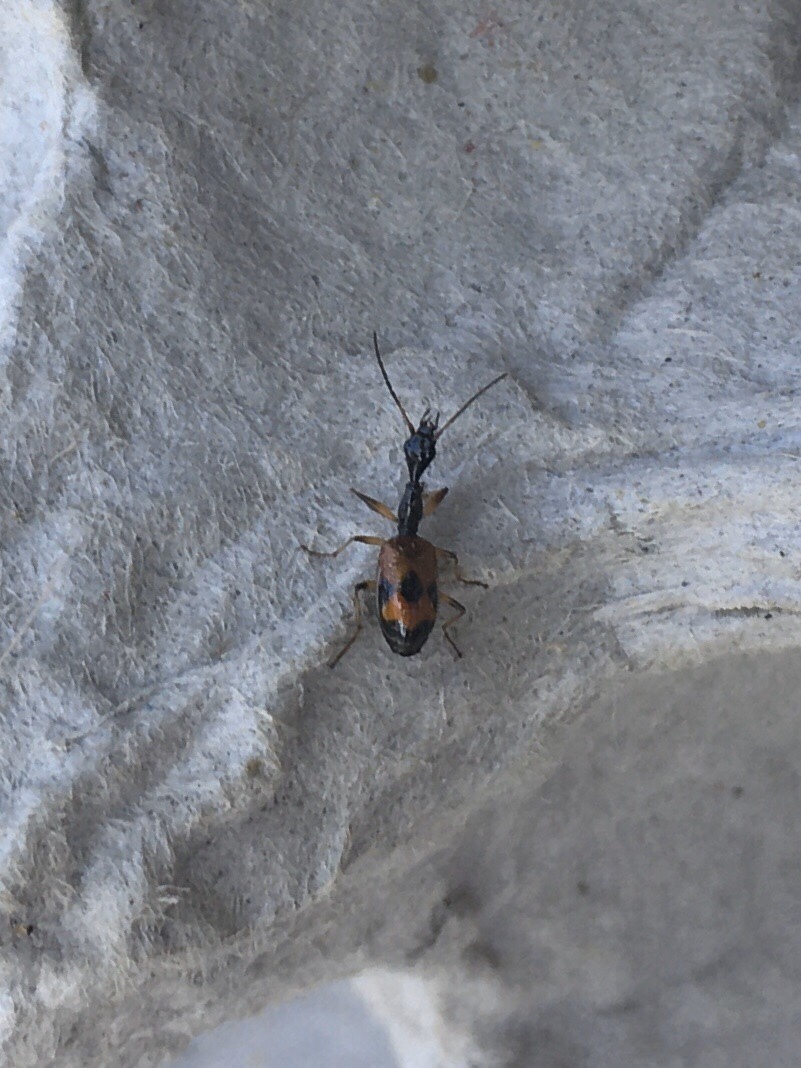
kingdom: Animalia
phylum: Arthropoda
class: Insecta
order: Coleoptera
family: Carabidae
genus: Colliuris
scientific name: Colliuris pensylvanica
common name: Long-necked ground beetle
